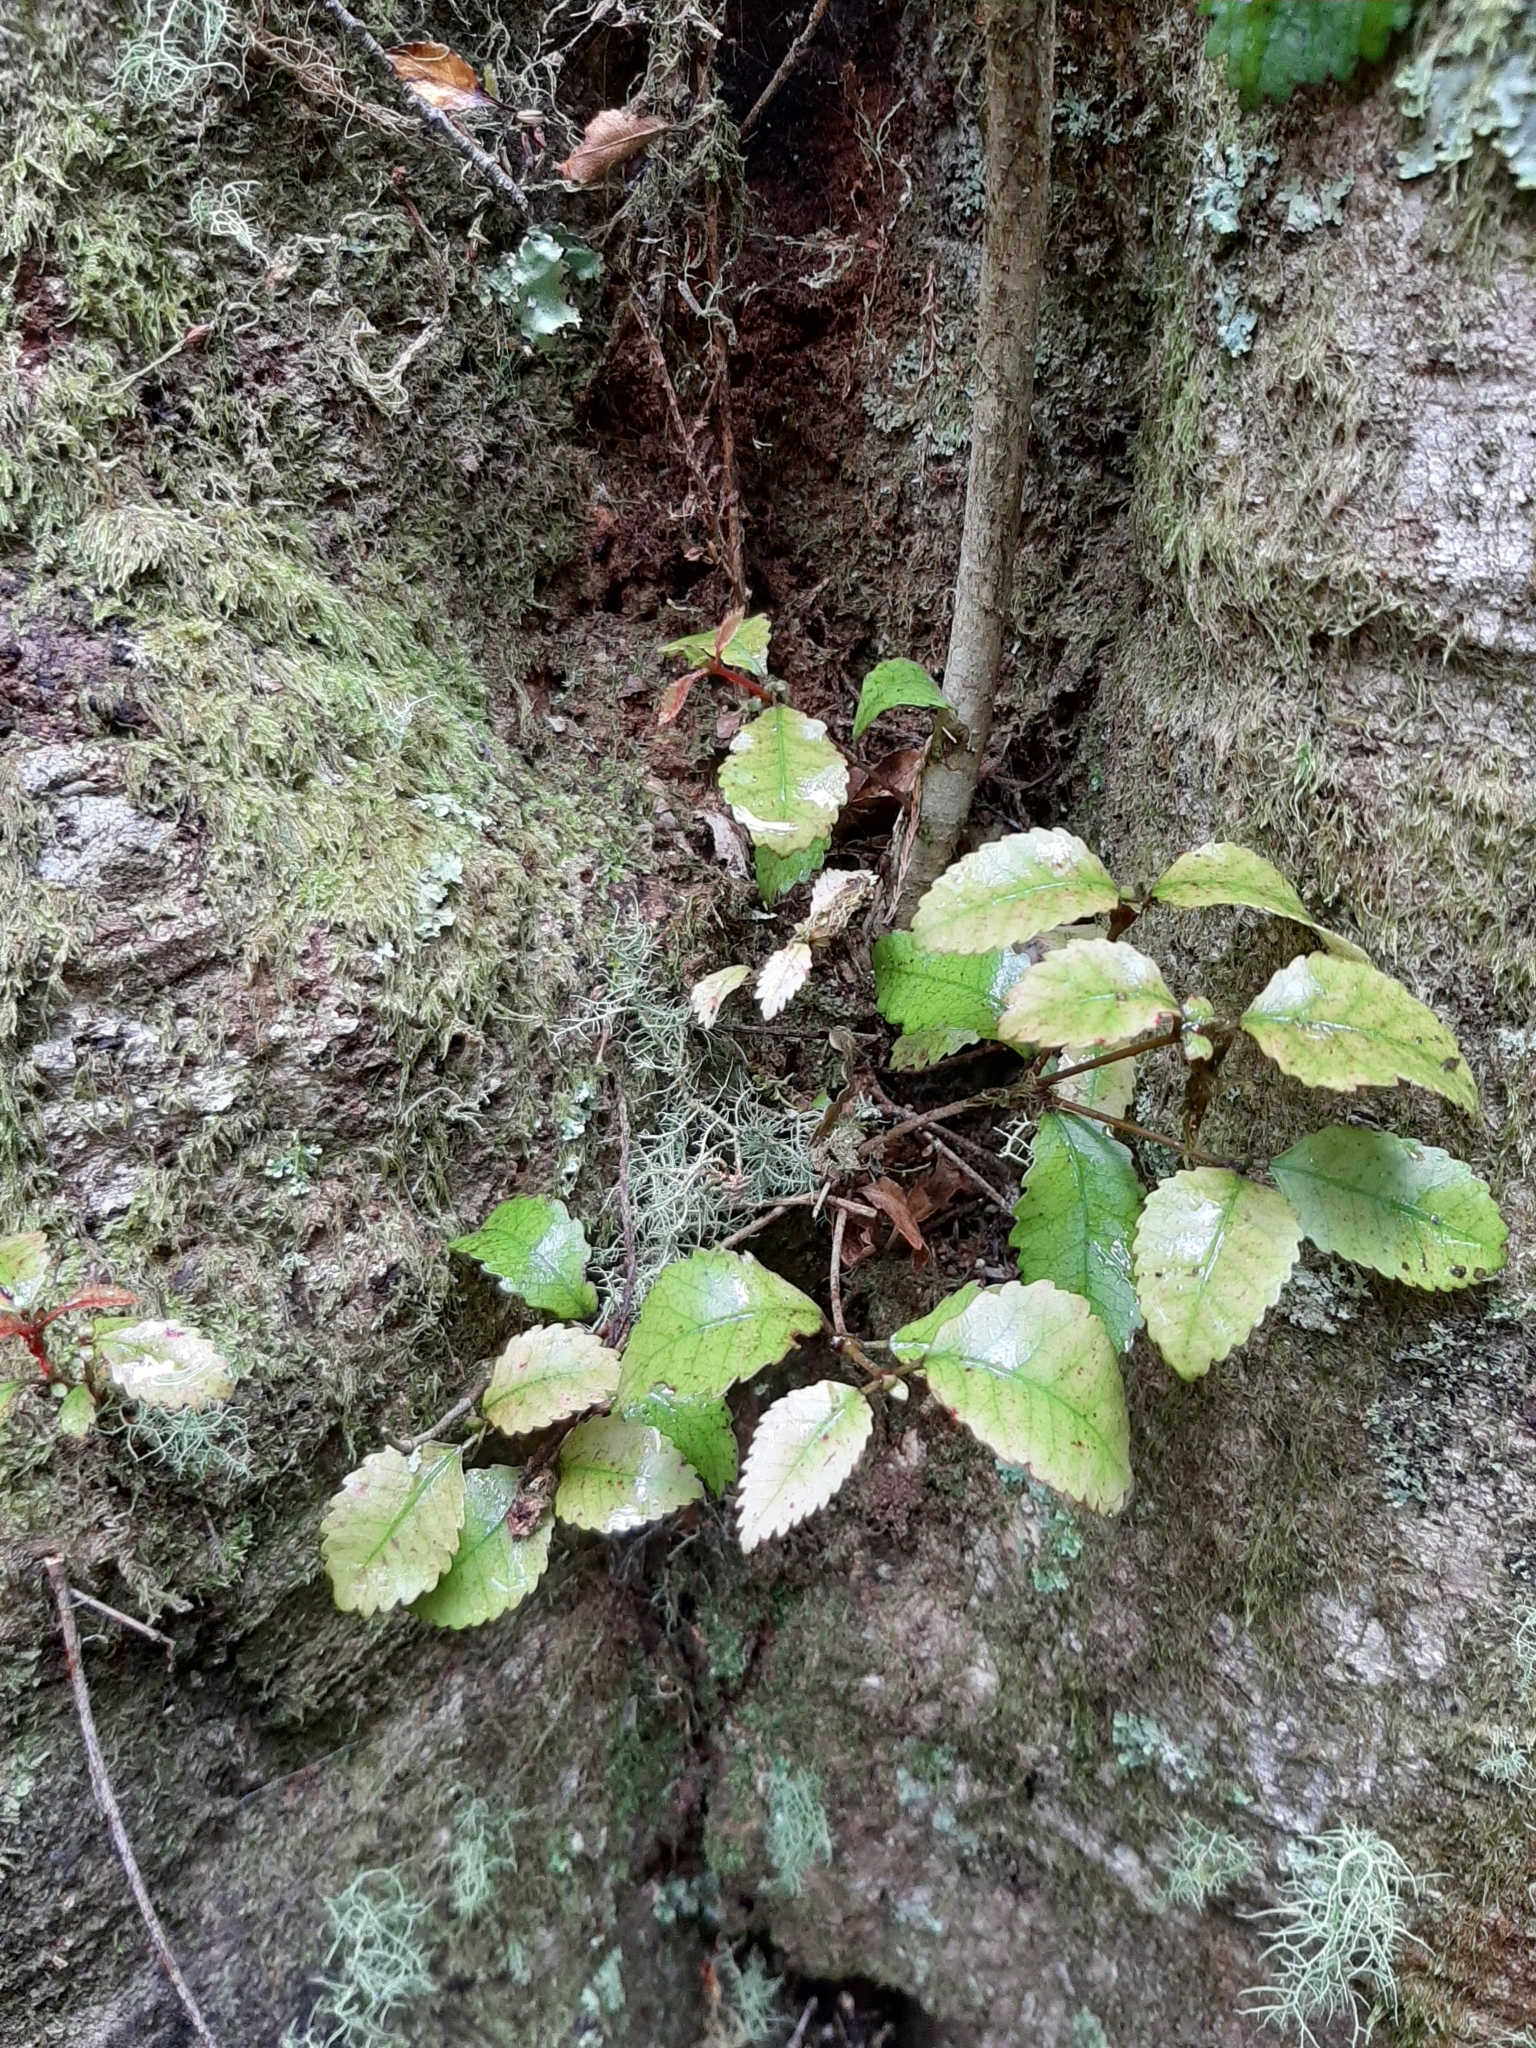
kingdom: Plantae
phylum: Tracheophyta
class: Magnoliopsida
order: Oxalidales
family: Cunoniaceae
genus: Pterophylla
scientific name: Pterophylla racemosa
